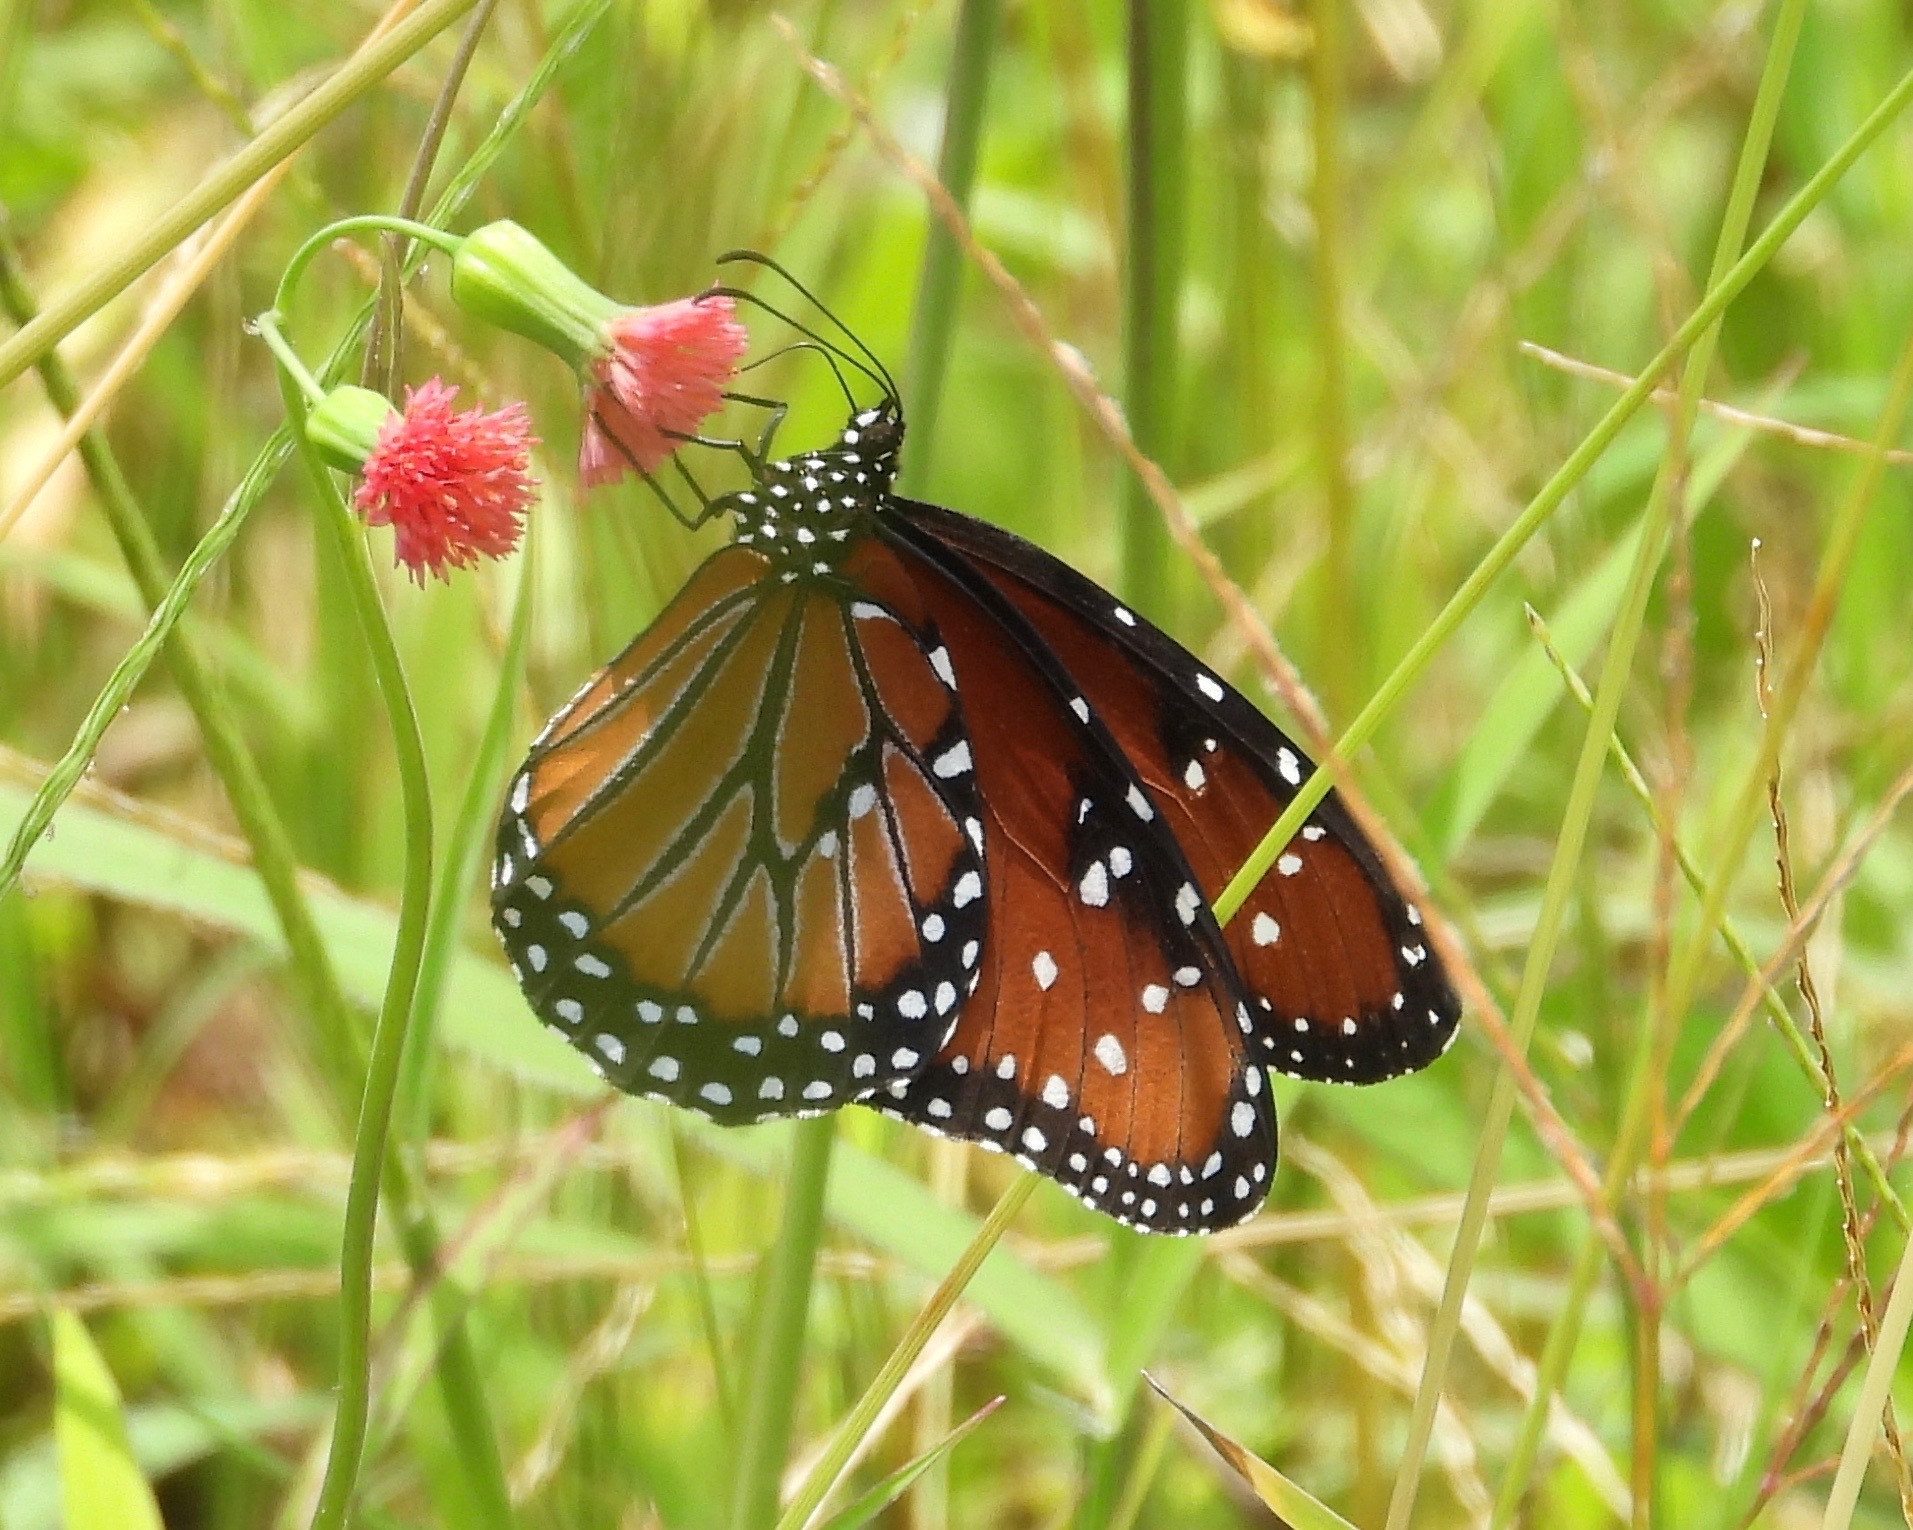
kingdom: Animalia
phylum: Arthropoda
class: Insecta
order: Lepidoptera
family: Nymphalidae
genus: Danaus
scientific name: Danaus gilippus
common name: Queen
